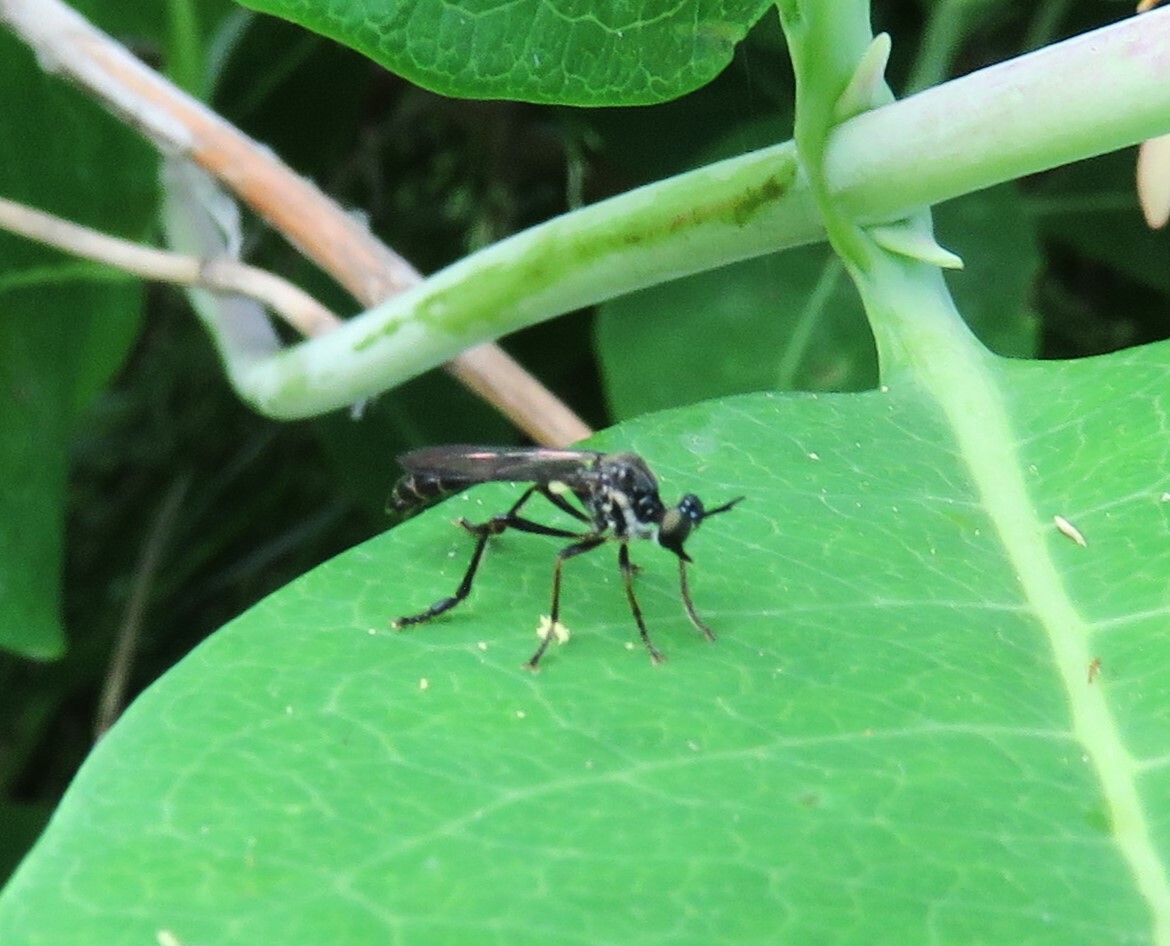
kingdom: Animalia
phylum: Arthropoda
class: Insecta
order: Diptera
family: Asilidae
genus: Dioctria
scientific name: Dioctria hyalipennis
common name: Stripe-legged robberfly
